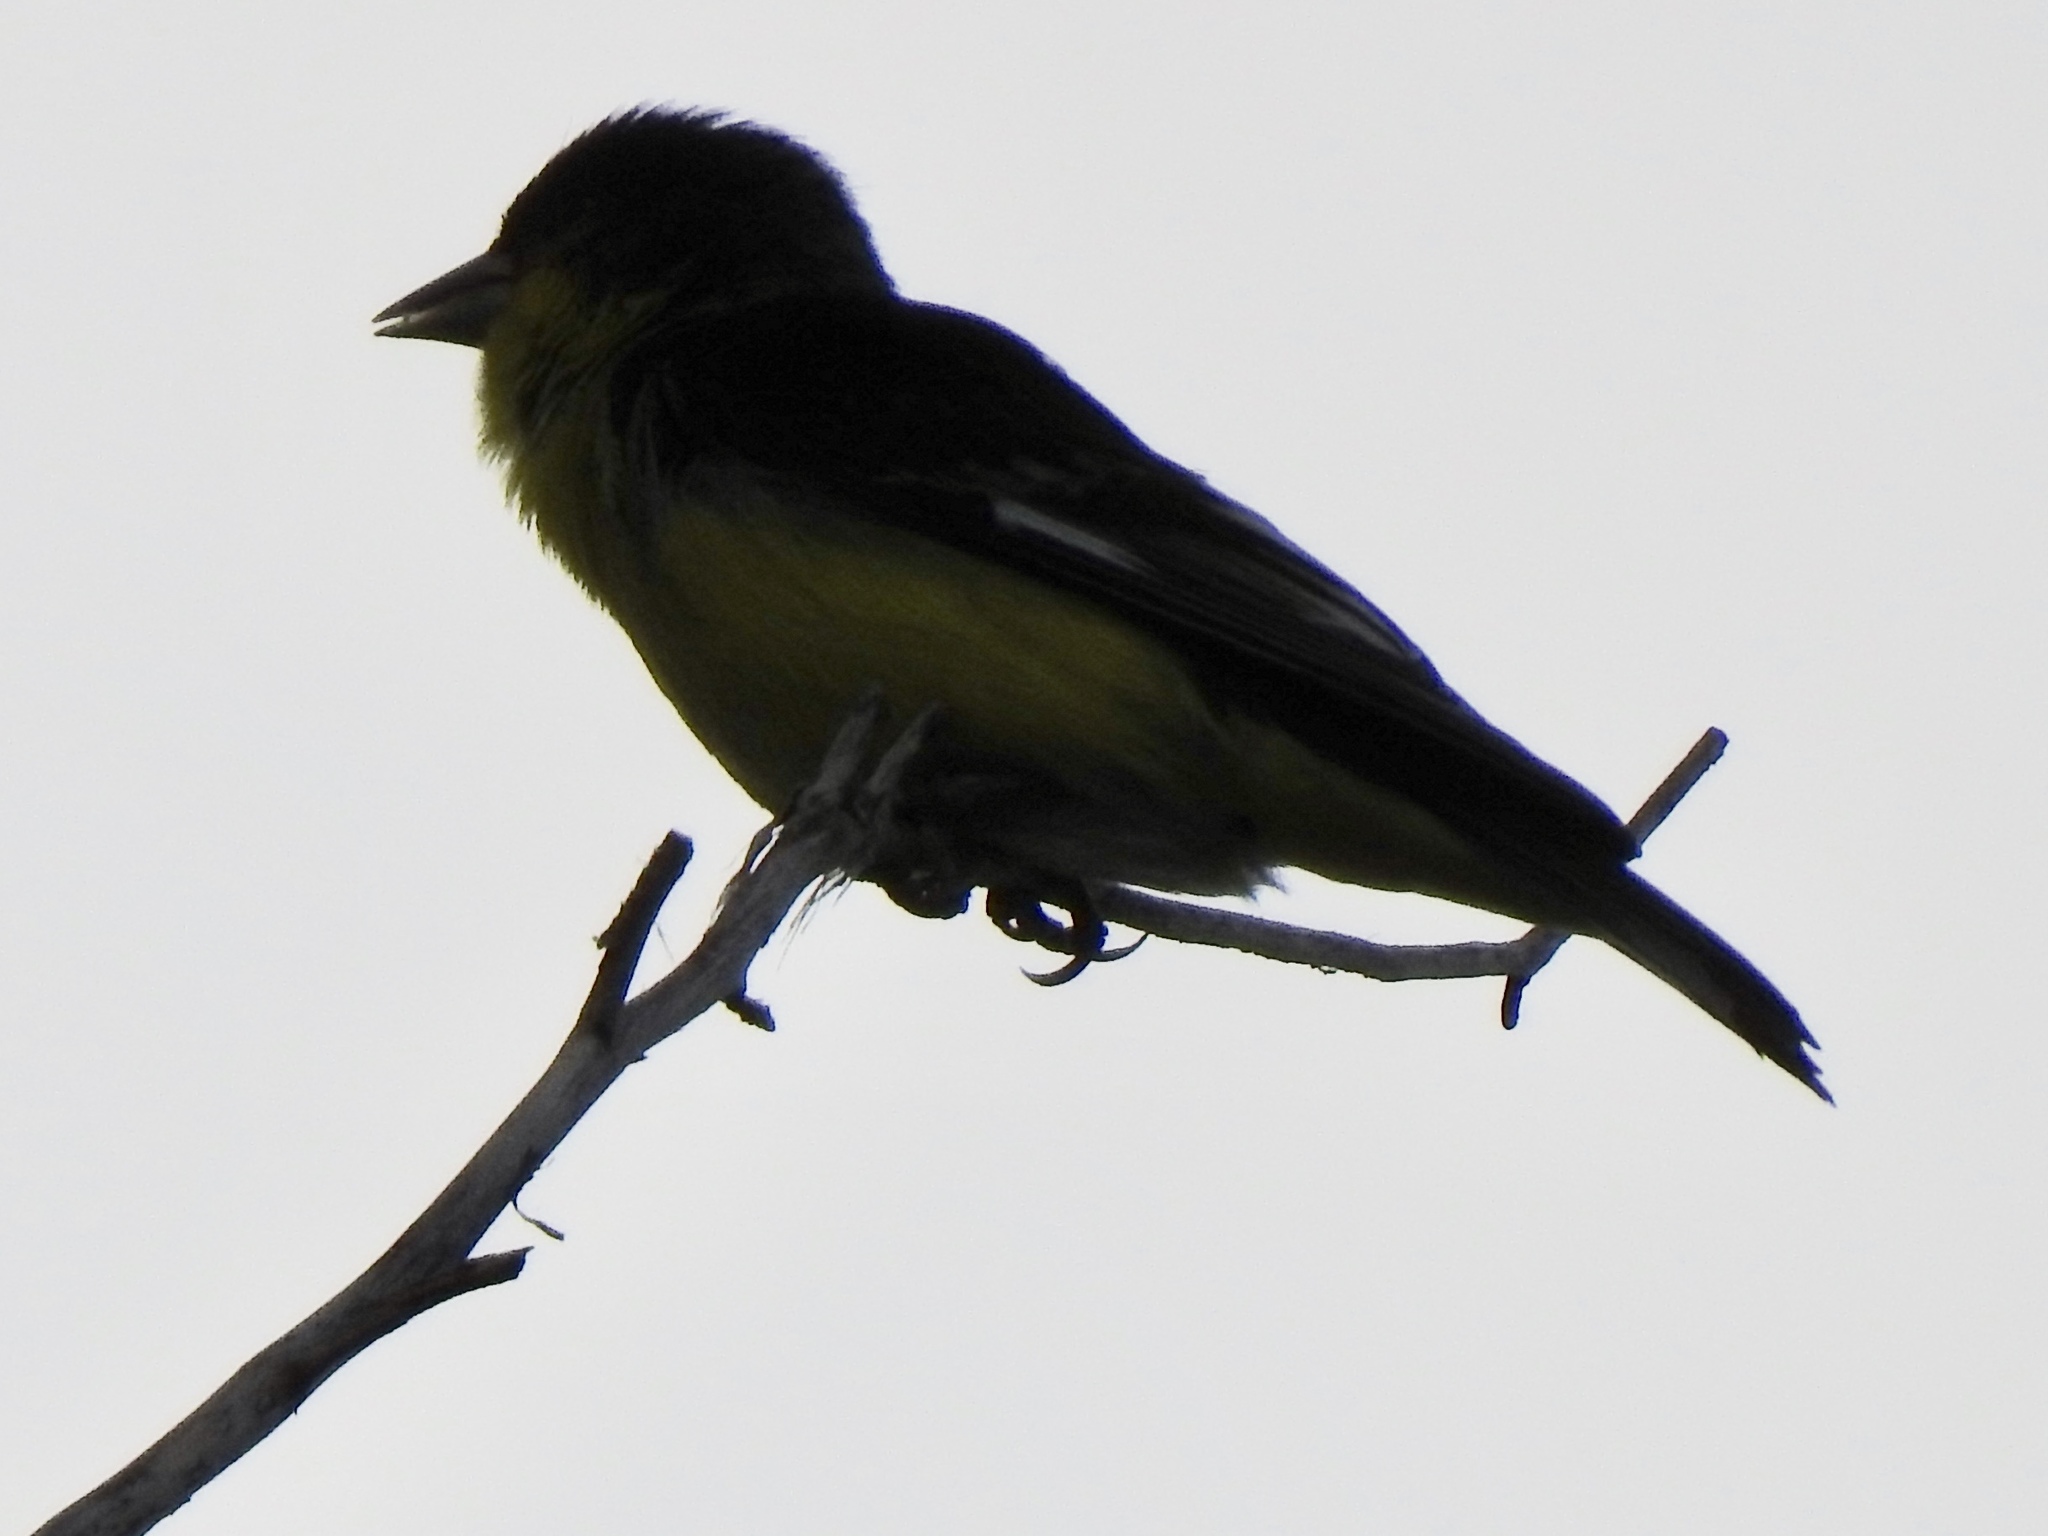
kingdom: Animalia
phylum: Chordata
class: Aves
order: Passeriformes
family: Fringillidae
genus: Spinus
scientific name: Spinus psaltria
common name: Lesser goldfinch
